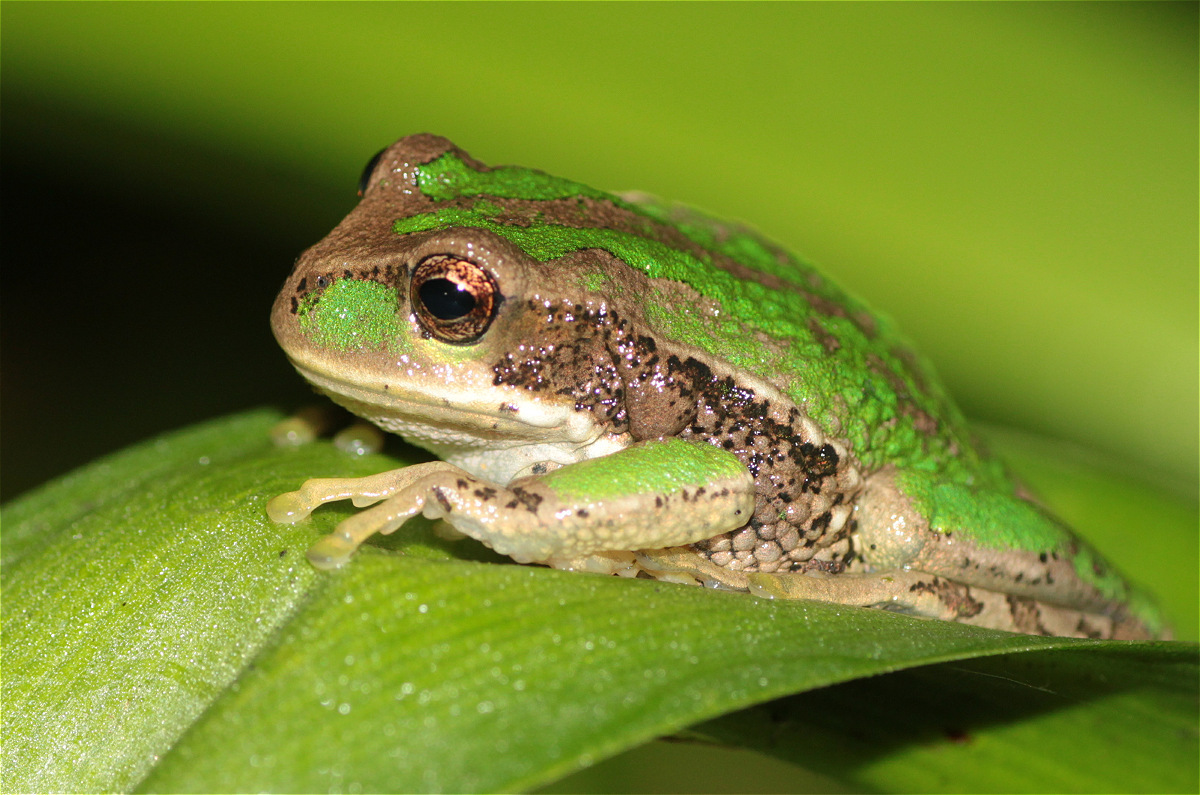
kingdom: Animalia
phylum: Chordata
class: Amphibia
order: Anura
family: Hemiphractidae
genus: Gastrotheca
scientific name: Gastrotheca cuencana
